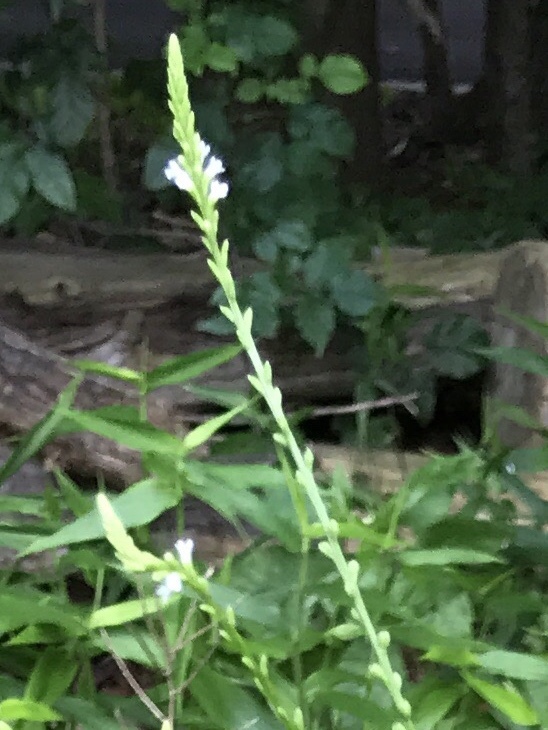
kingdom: Plantae
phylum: Tracheophyta
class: Magnoliopsida
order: Lamiales
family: Verbenaceae
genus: Verbena
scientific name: Verbena urticifolia
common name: Nettle-leaved vervain
